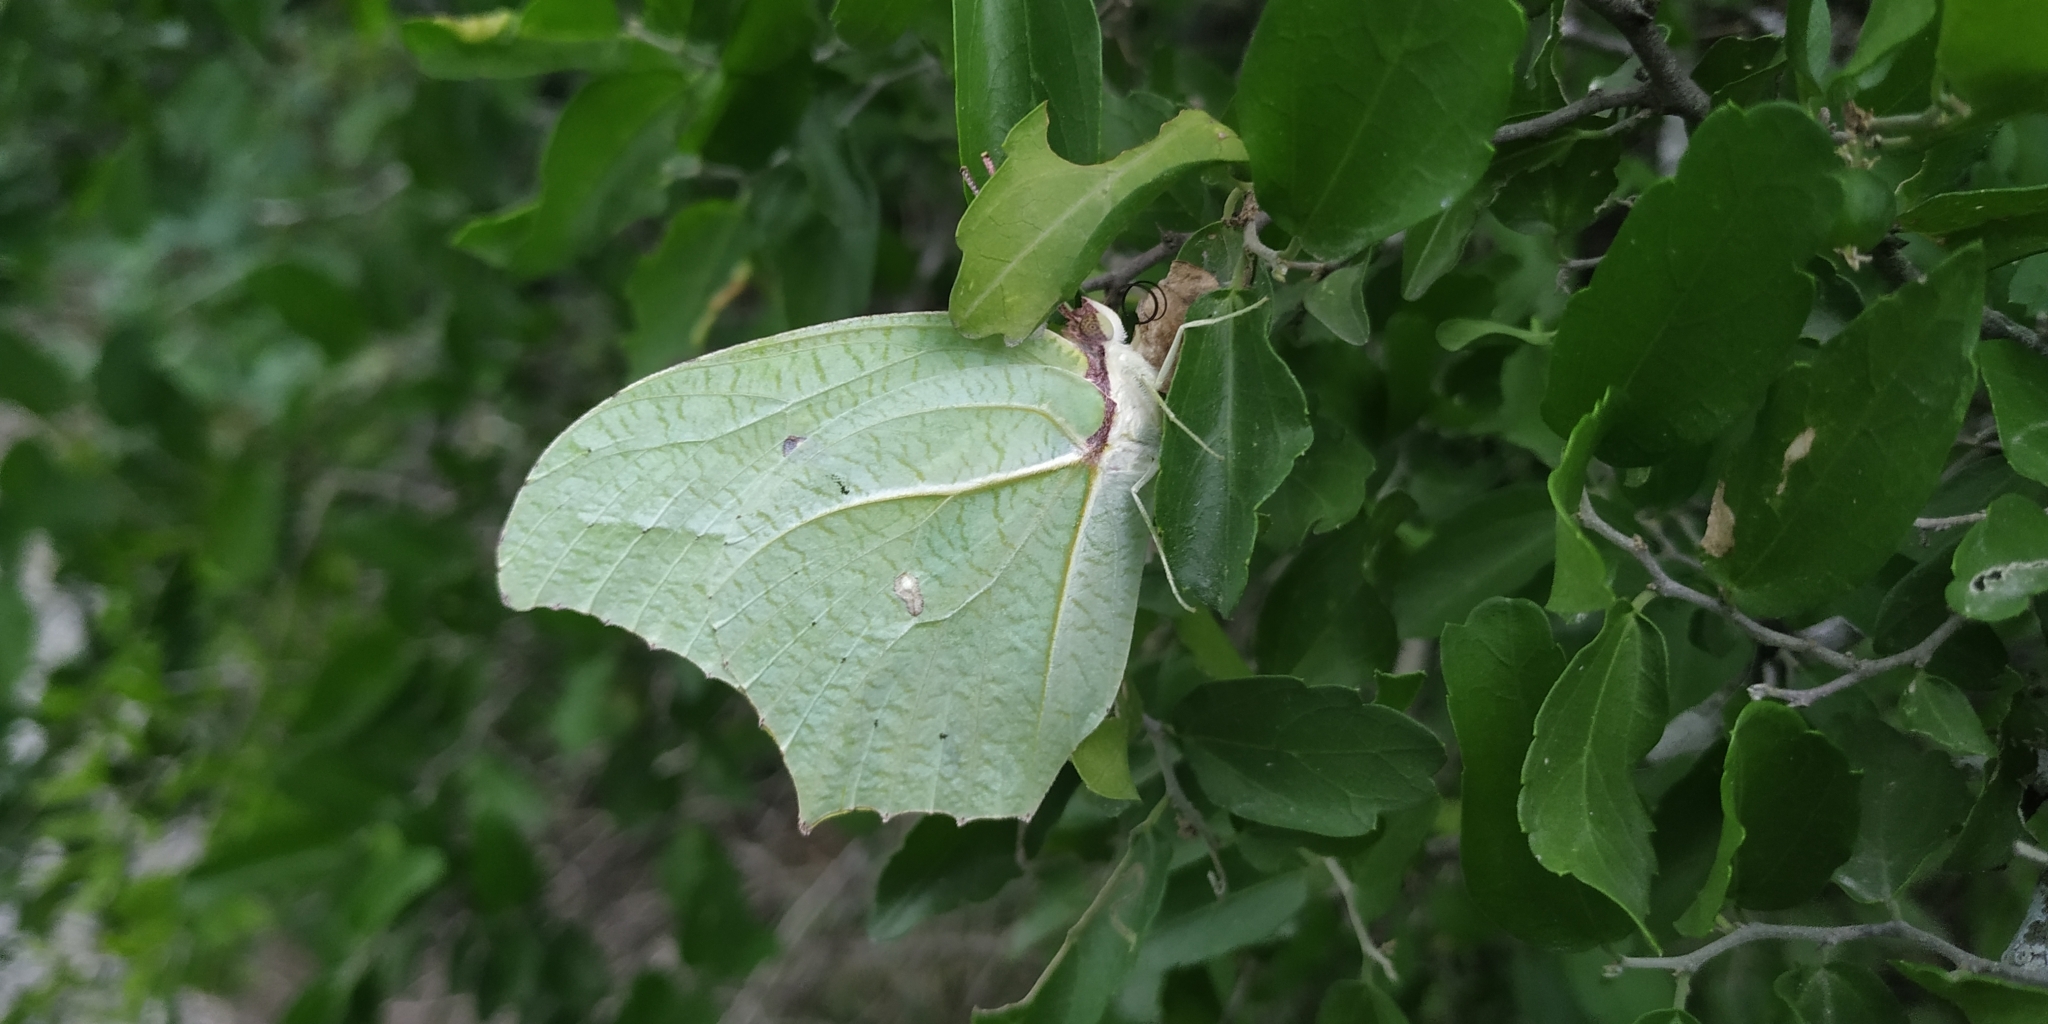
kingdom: Animalia
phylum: Arthropoda
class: Insecta
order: Lepidoptera
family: Pieridae
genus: Anteos
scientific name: Anteos maerula
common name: Angled sulphur
